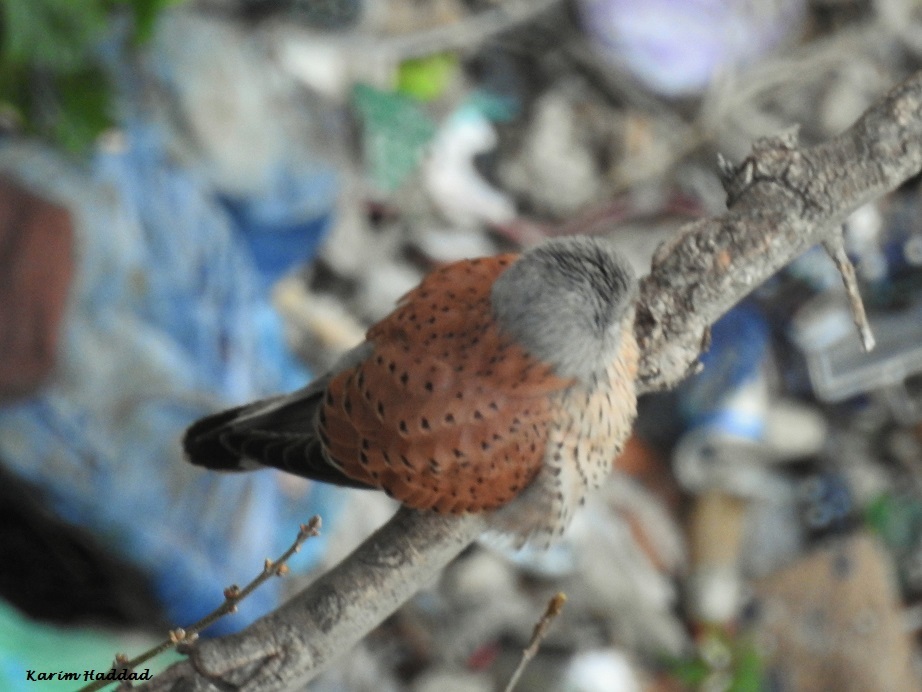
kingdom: Animalia
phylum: Chordata
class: Aves
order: Falconiformes
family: Falconidae
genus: Falco
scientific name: Falco tinnunculus
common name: Common kestrel
